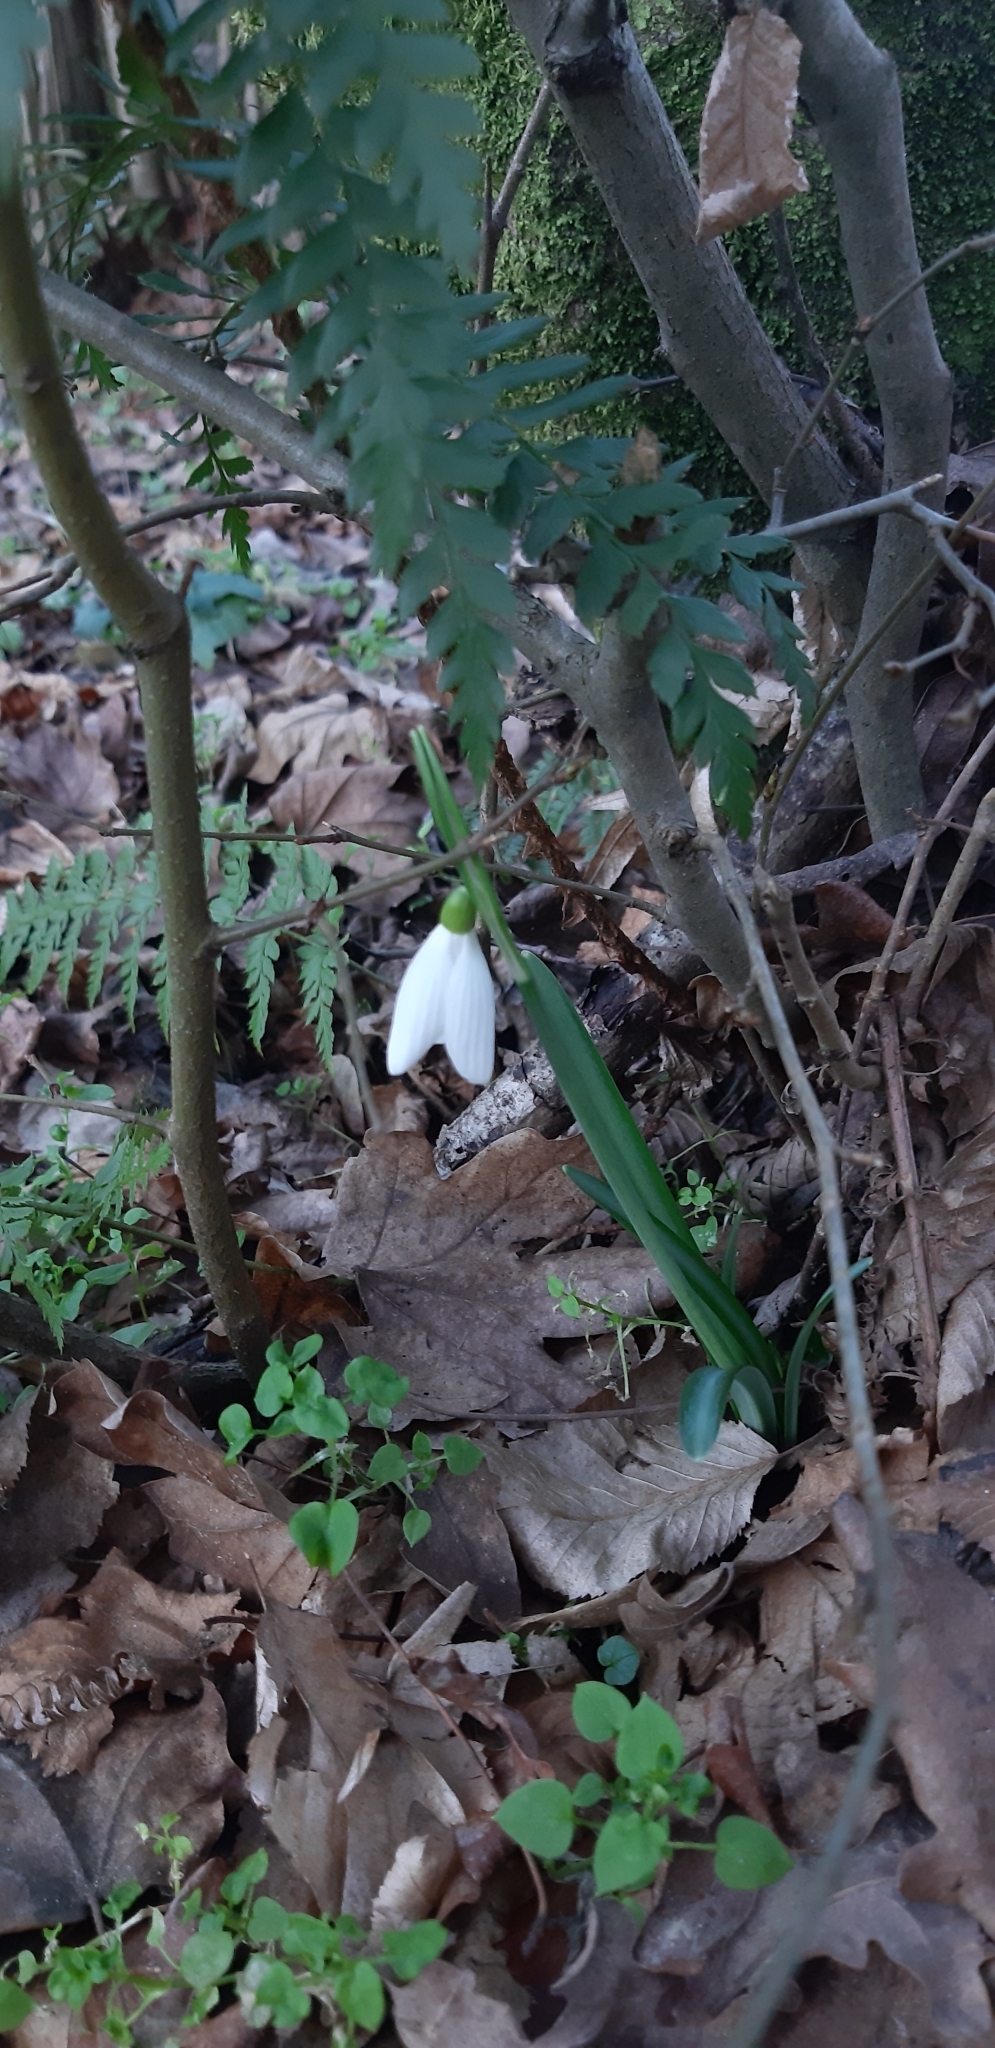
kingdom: Plantae
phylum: Tracheophyta
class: Liliopsida
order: Asparagales
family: Amaryllidaceae
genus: Galanthus
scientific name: Galanthus nivalis
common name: Snowdrop
